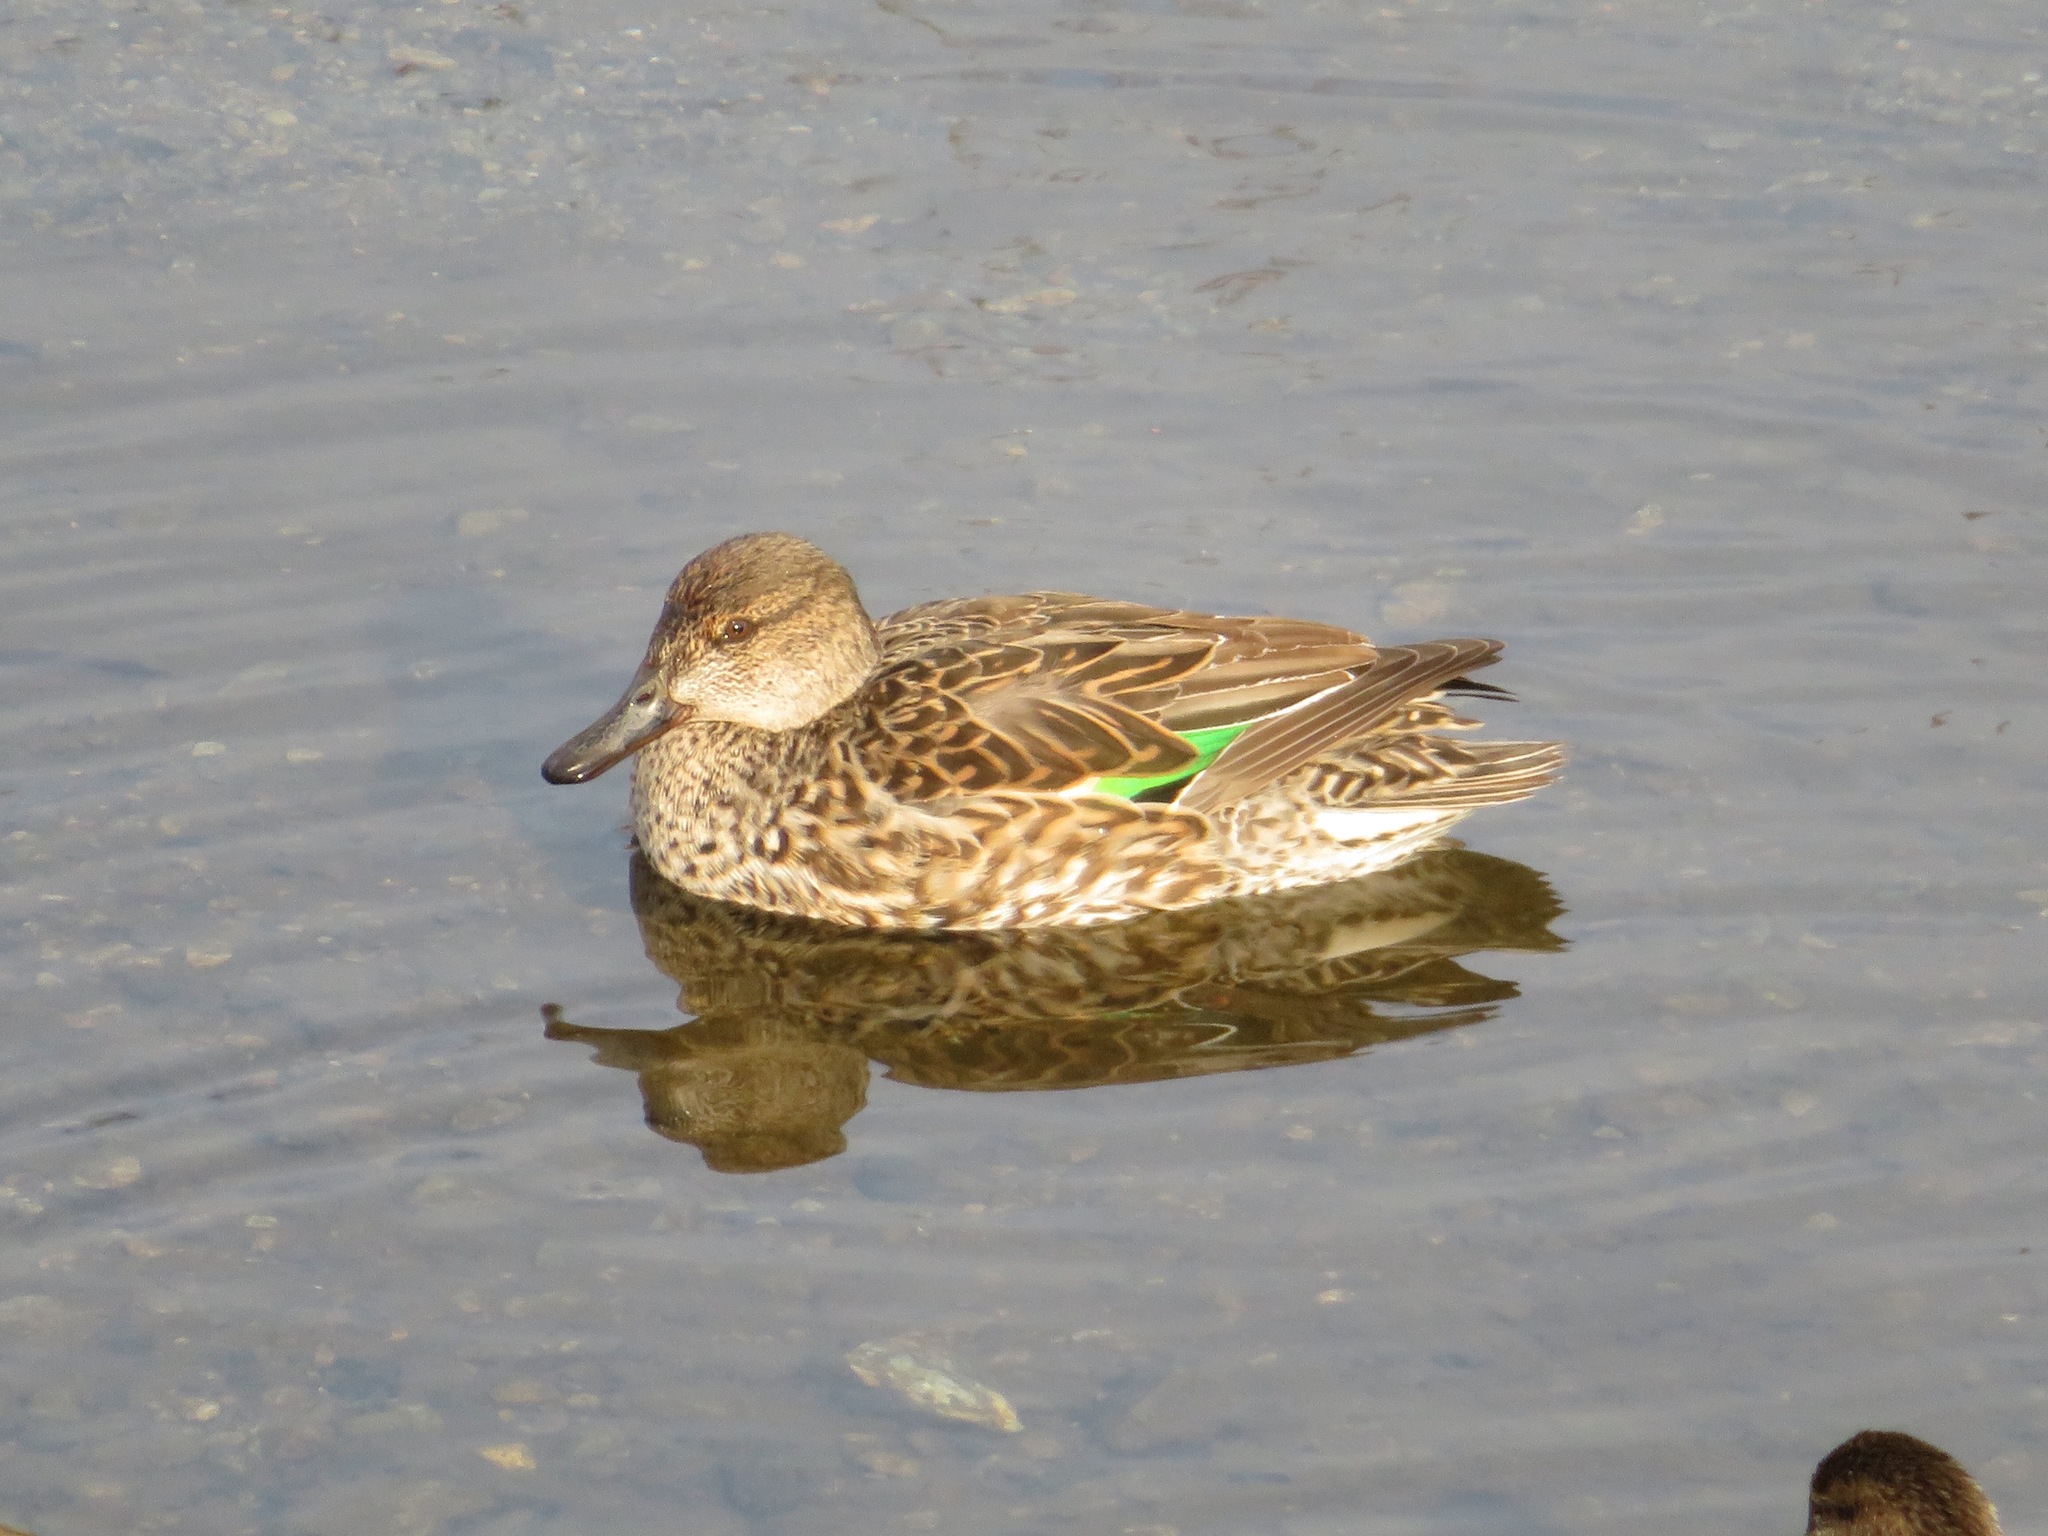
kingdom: Animalia
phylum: Chordata
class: Aves
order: Anseriformes
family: Anatidae
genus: Anas
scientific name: Anas crecca
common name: Eurasian teal
